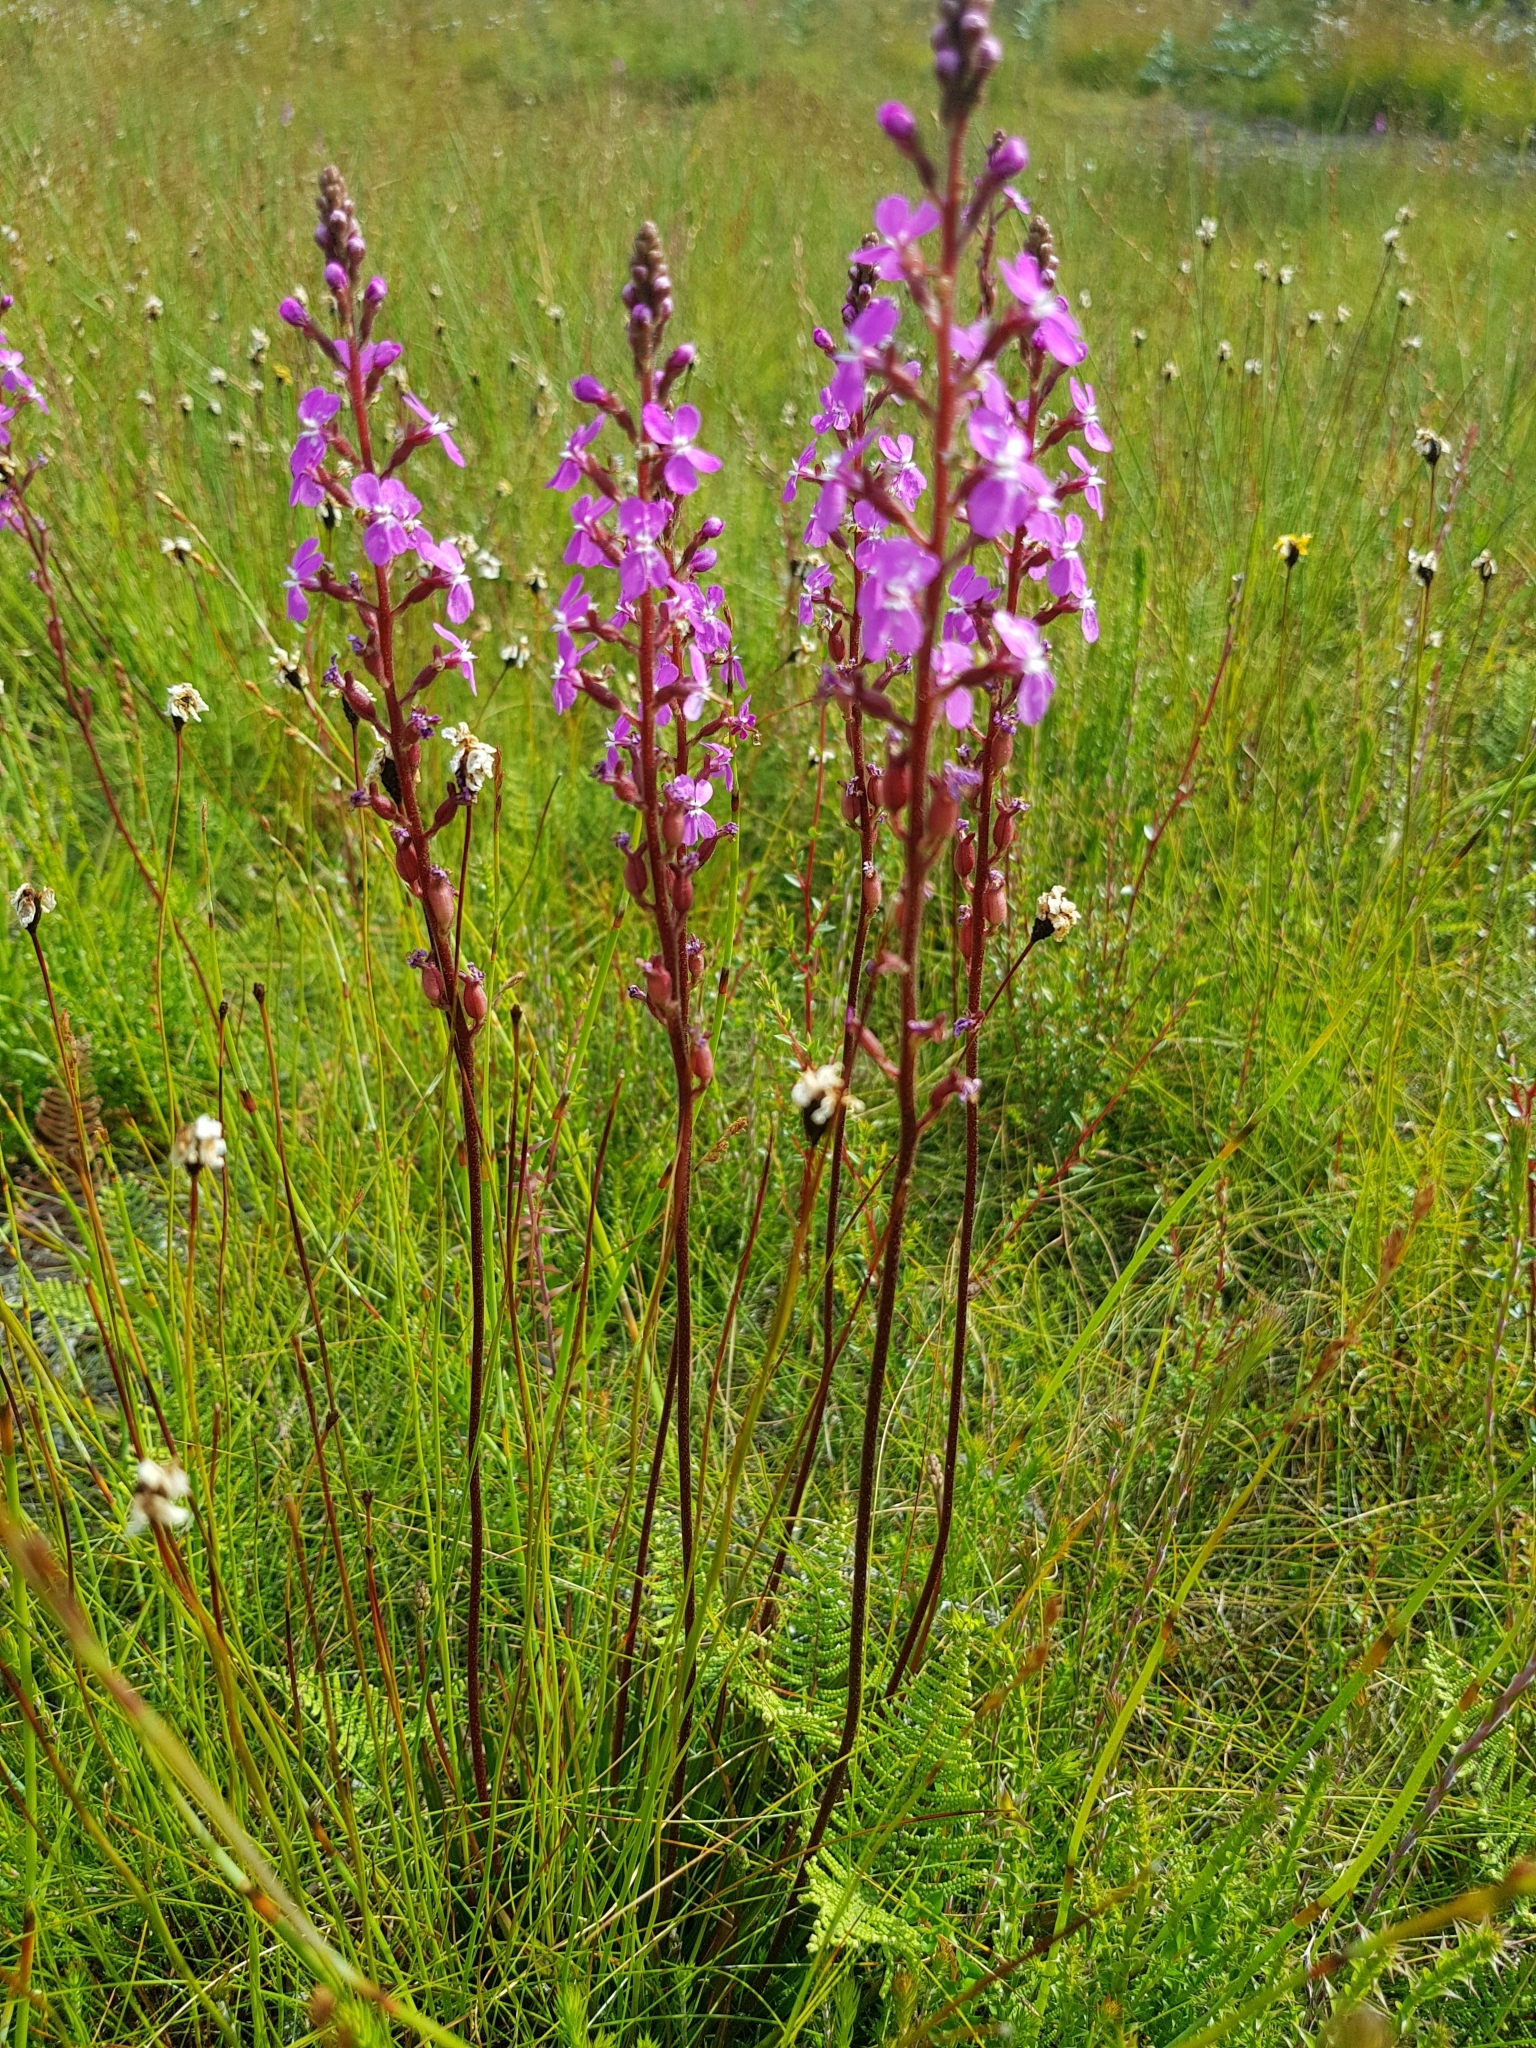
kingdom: Plantae
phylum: Tracheophyta
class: Magnoliopsida
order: Asterales
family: Stylidiaceae
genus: Stylidium
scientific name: Stylidium graminifolium
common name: Grass triggerplant
